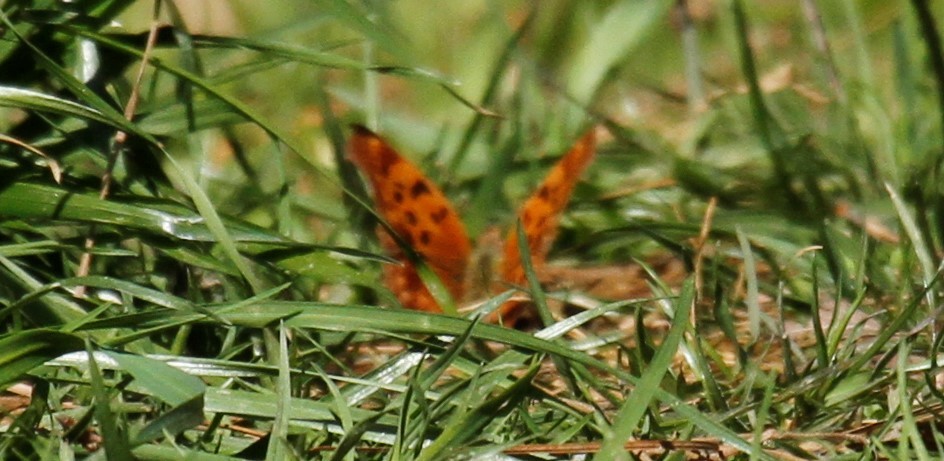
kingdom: Animalia
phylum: Arthropoda
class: Insecta
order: Lepidoptera
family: Nymphalidae
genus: Polygonia
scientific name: Polygonia interrogationis
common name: Question mark
